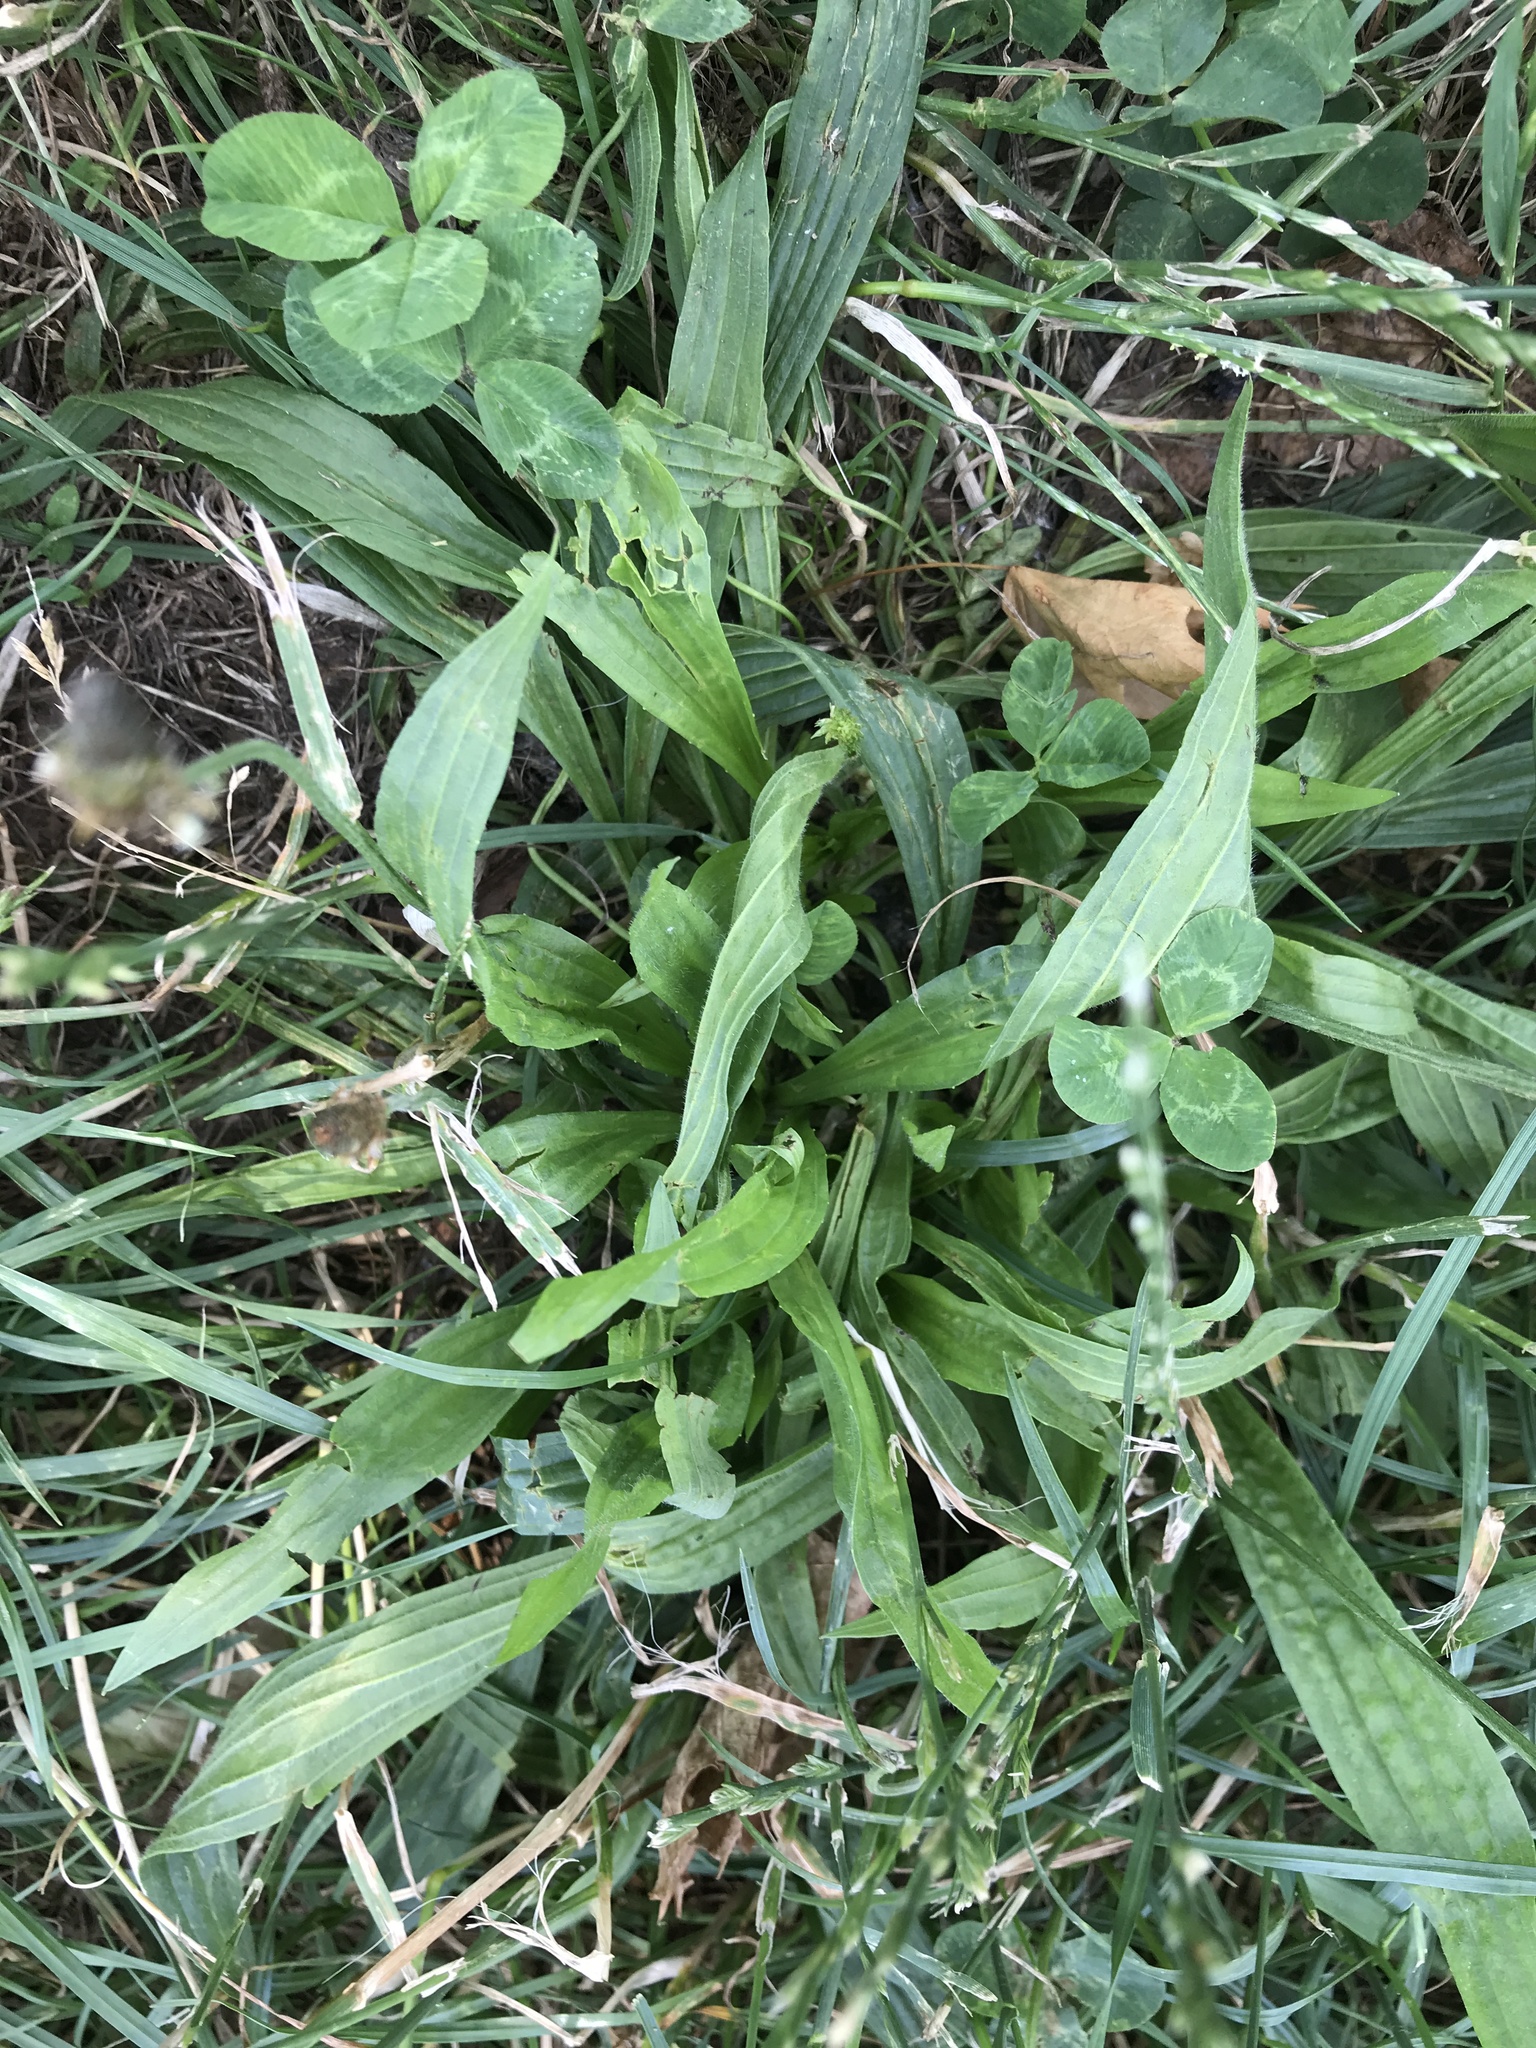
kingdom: Plantae
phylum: Tracheophyta
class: Magnoliopsida
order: Lamiales
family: Plantaginaceae
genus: Plantago
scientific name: Plantago lanceolata
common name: Ribwort plantain
